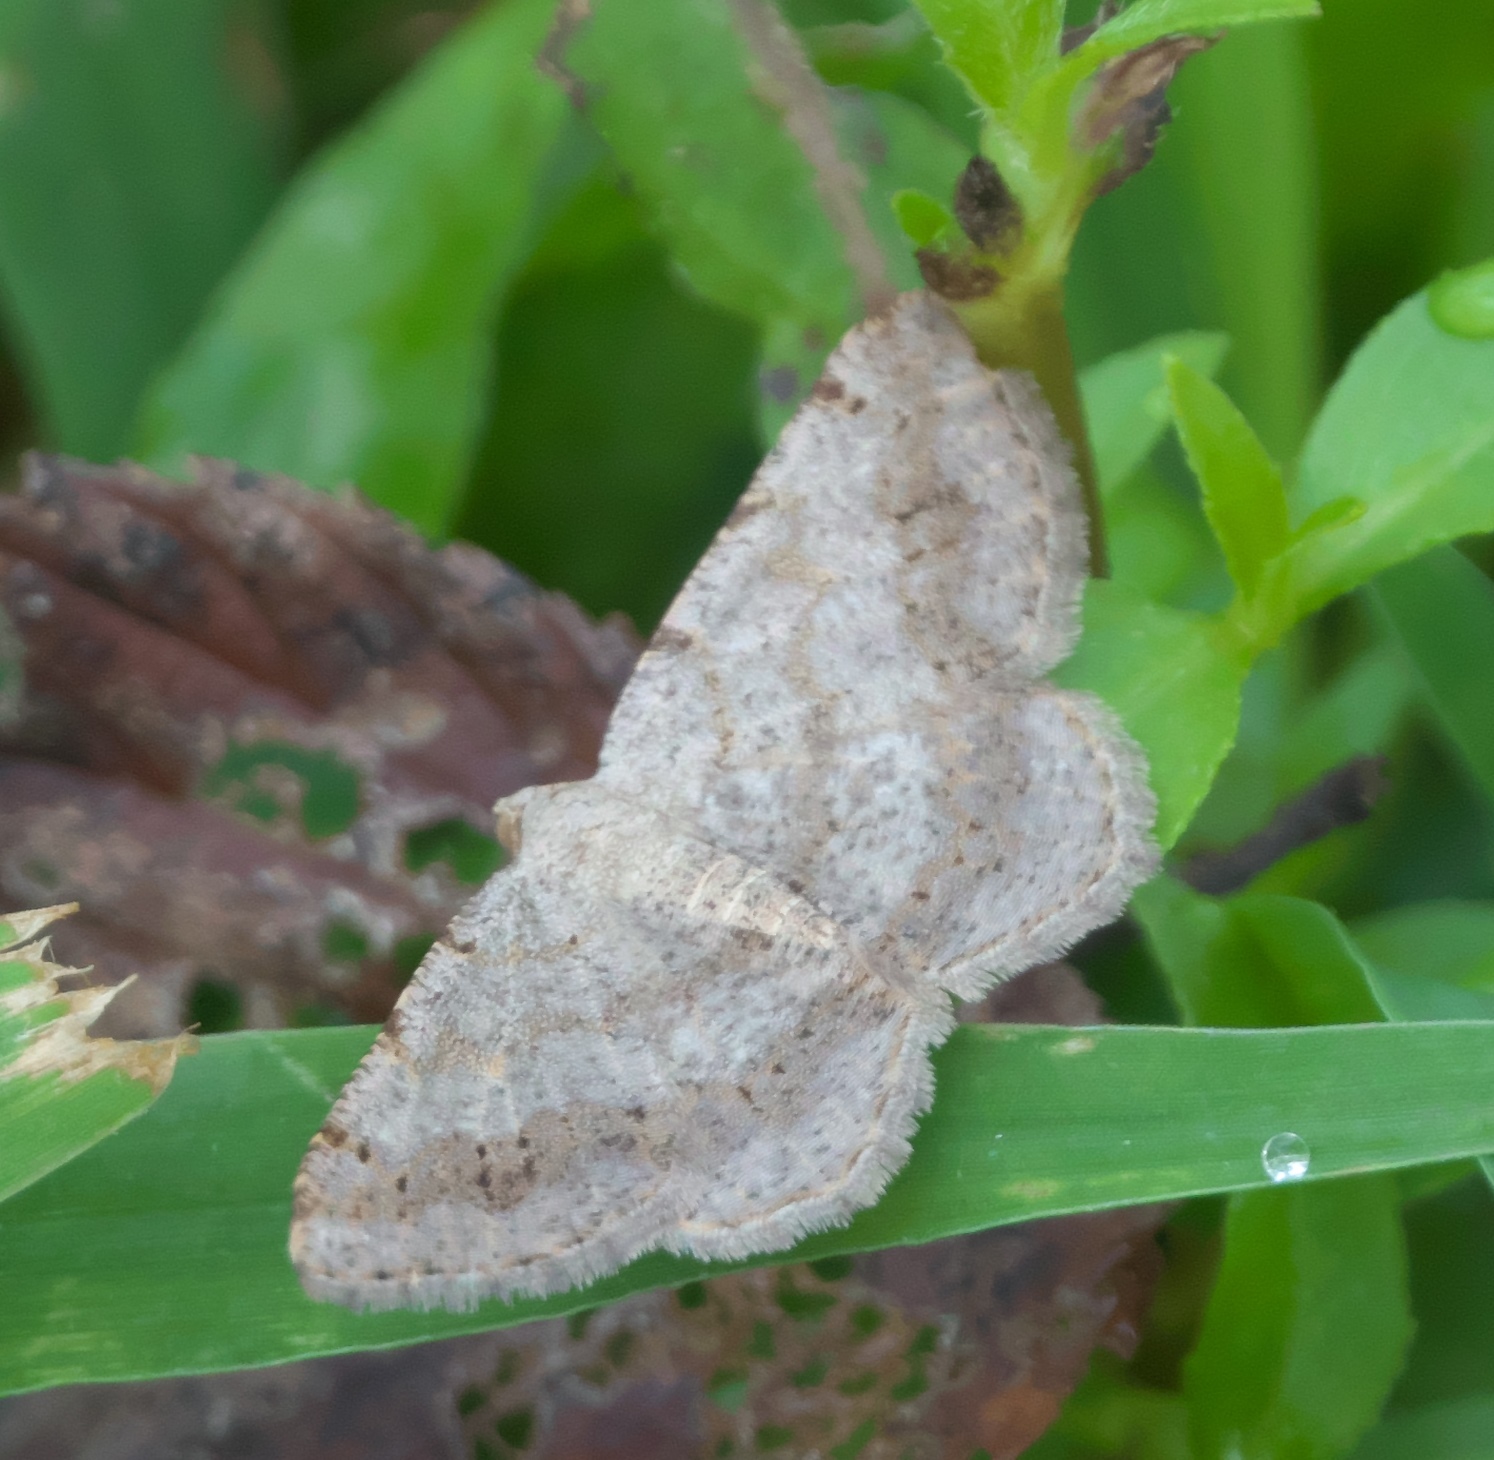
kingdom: Animalia
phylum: Arthropoda
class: Insecta
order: Lepidoptera
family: Geometridae
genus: Digrammia
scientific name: Digrammia ocellinata
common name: Faint-spotted angle
